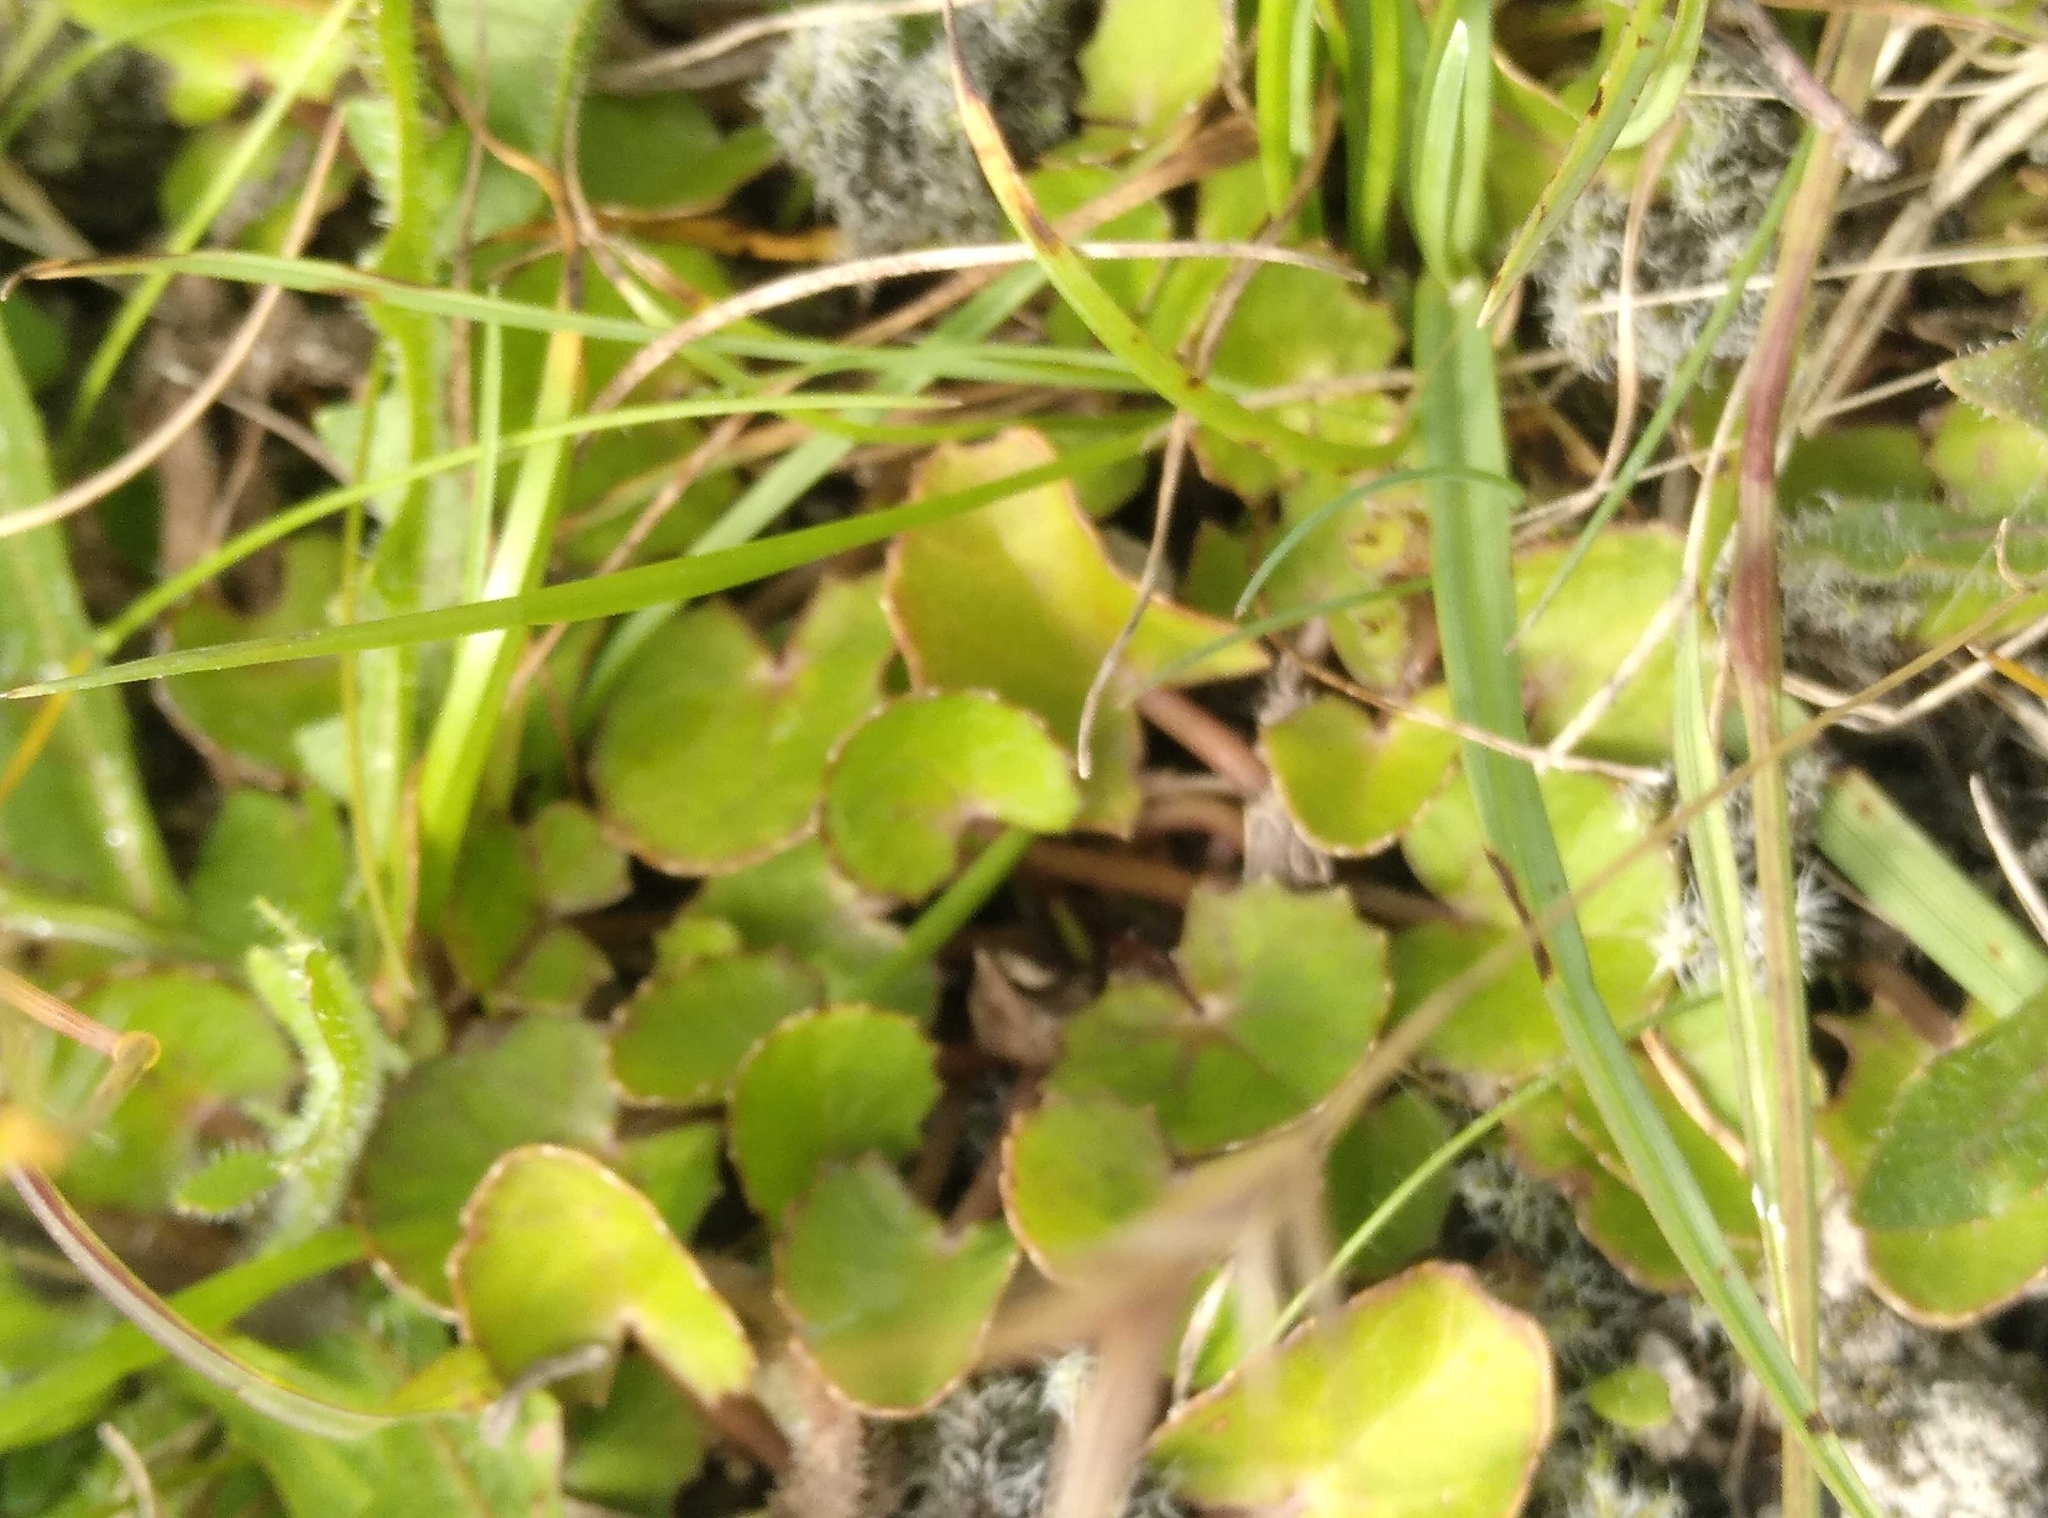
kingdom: Plantae
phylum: Tracheophyta
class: Magnoliopsida
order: Apiales
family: Apiaceae
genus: Centella
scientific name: Centella uniflora
